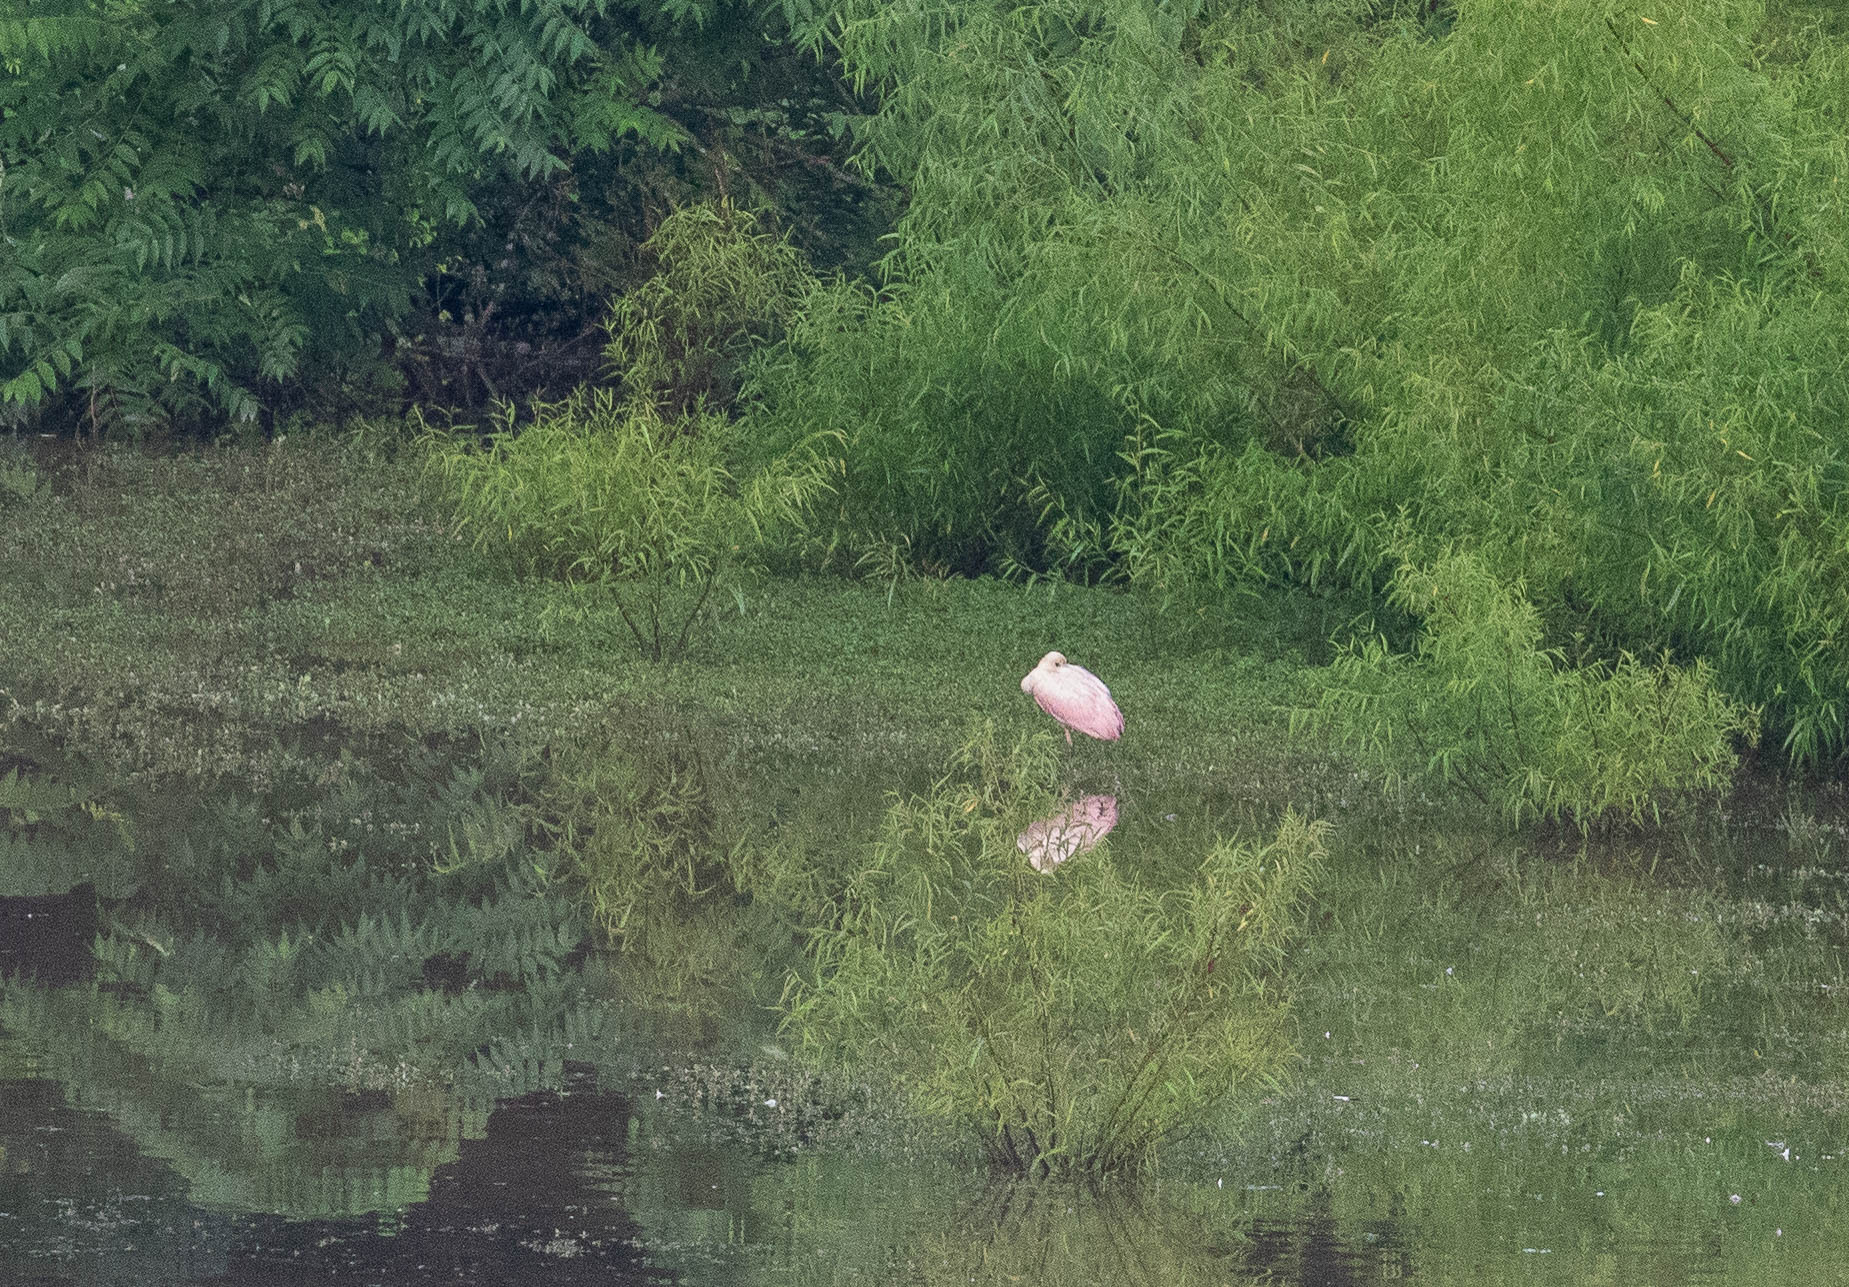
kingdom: Animalia
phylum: Chordata
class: Aves
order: Pelecaniformes
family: Threskiornithidae
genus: Platalea
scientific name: Platalea ajaja
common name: Roseate spoonbill
